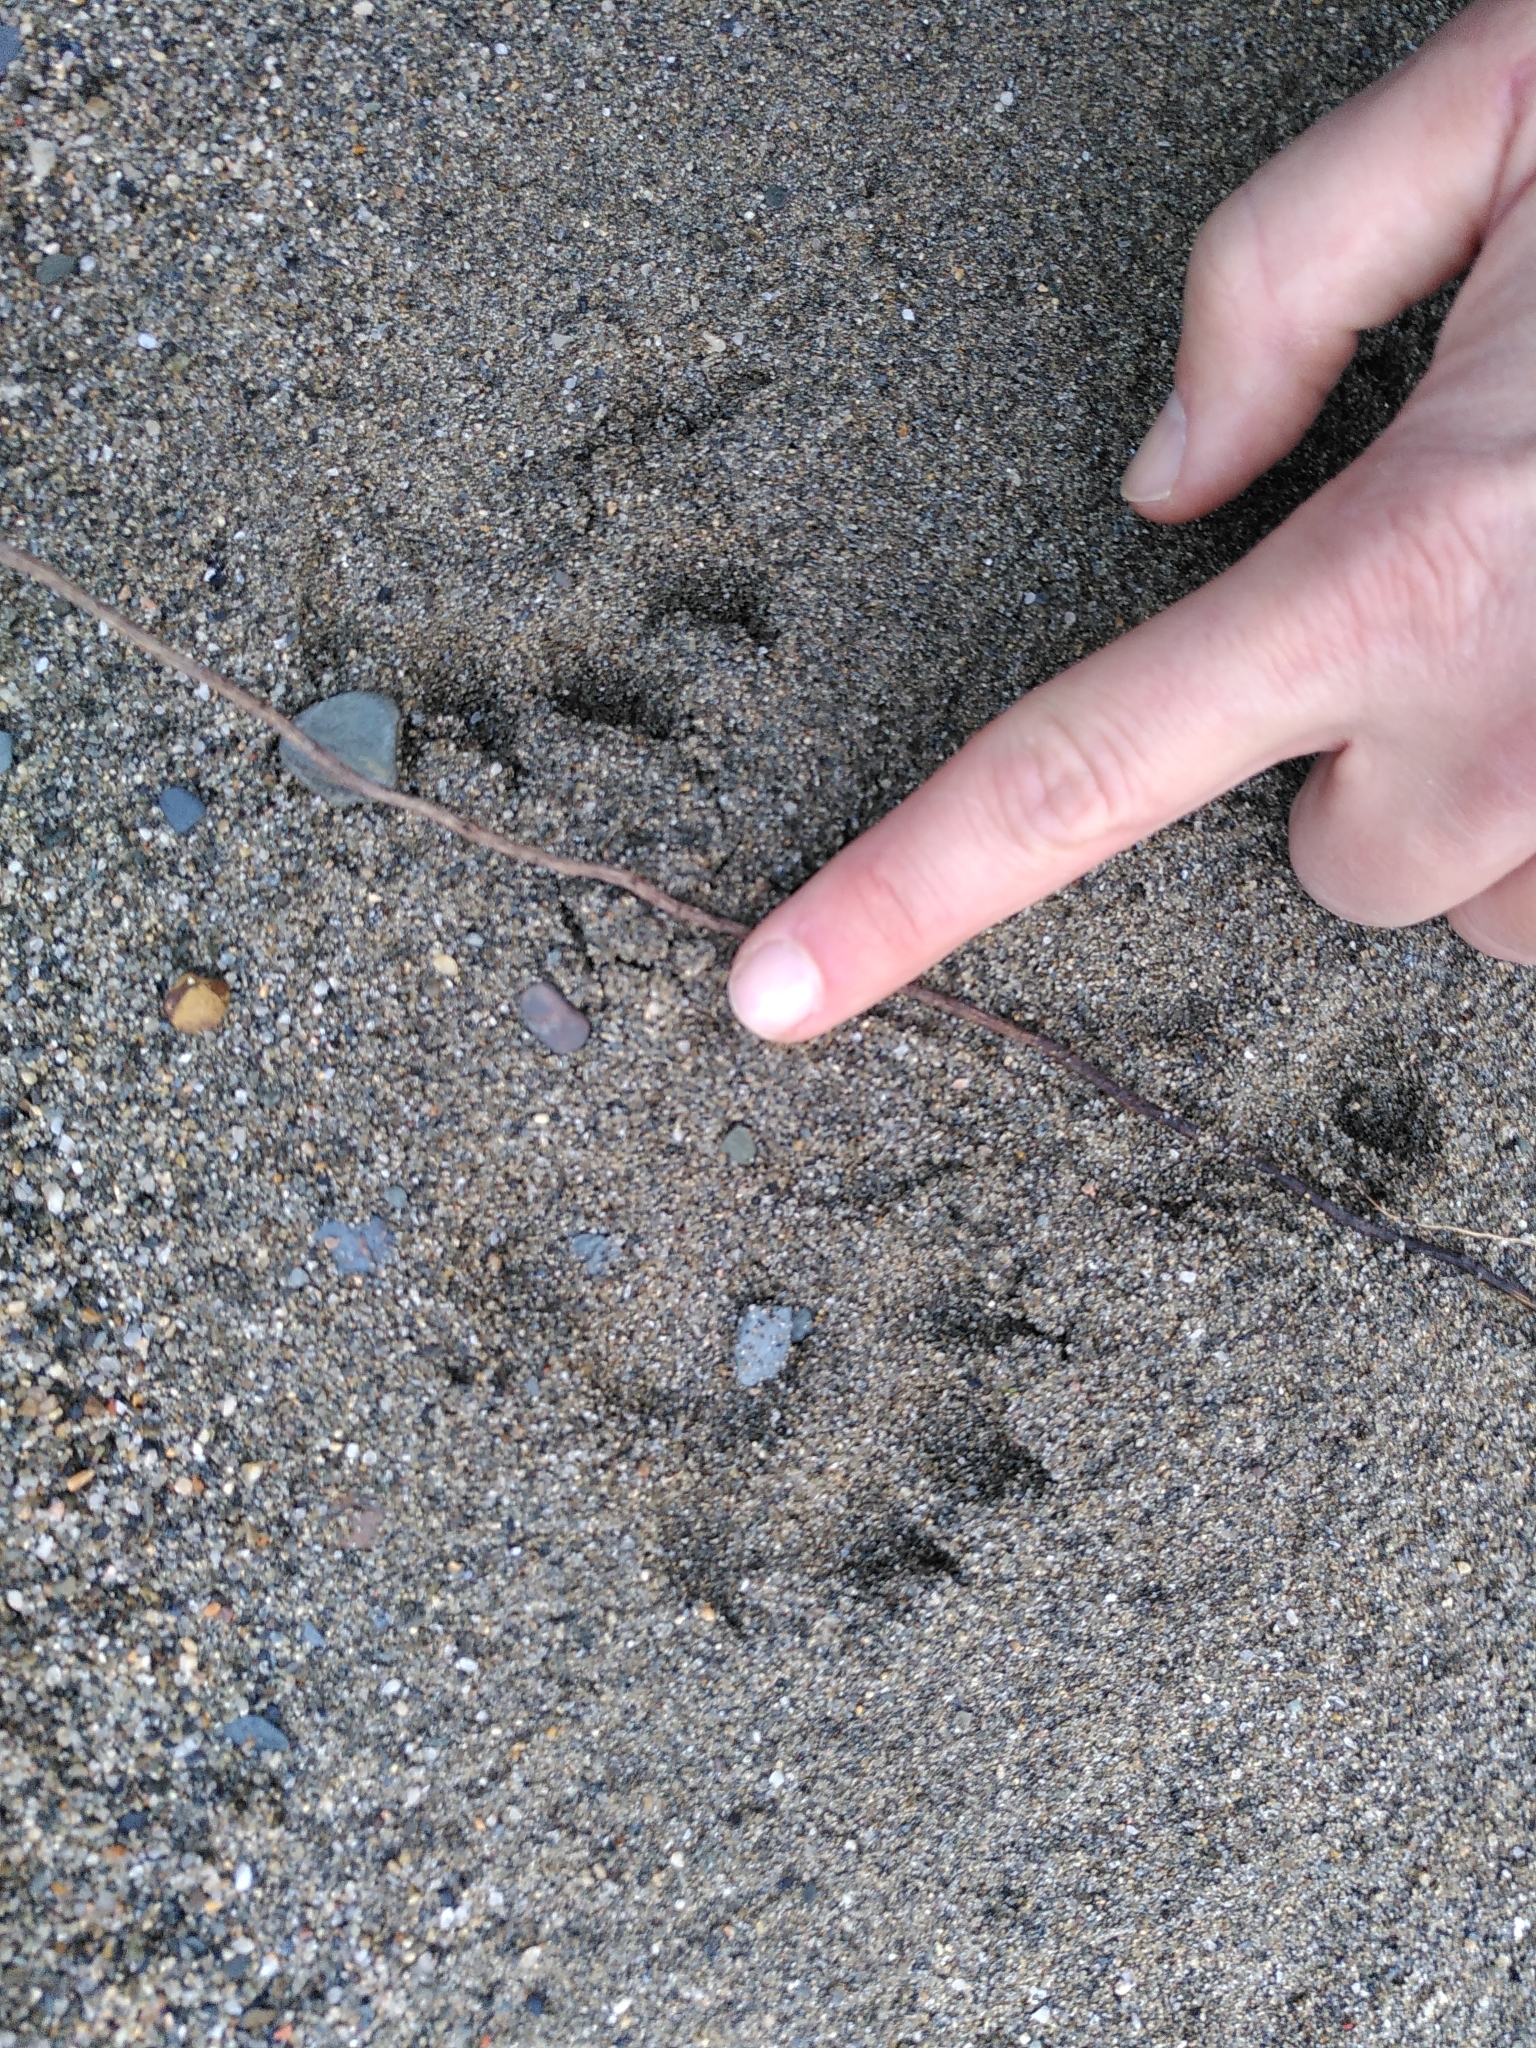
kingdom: Animalia
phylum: Chordata
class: Mammalia
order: Carnivora
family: Mustelidae
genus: Lutra
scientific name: Lutra lutra
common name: European otter
